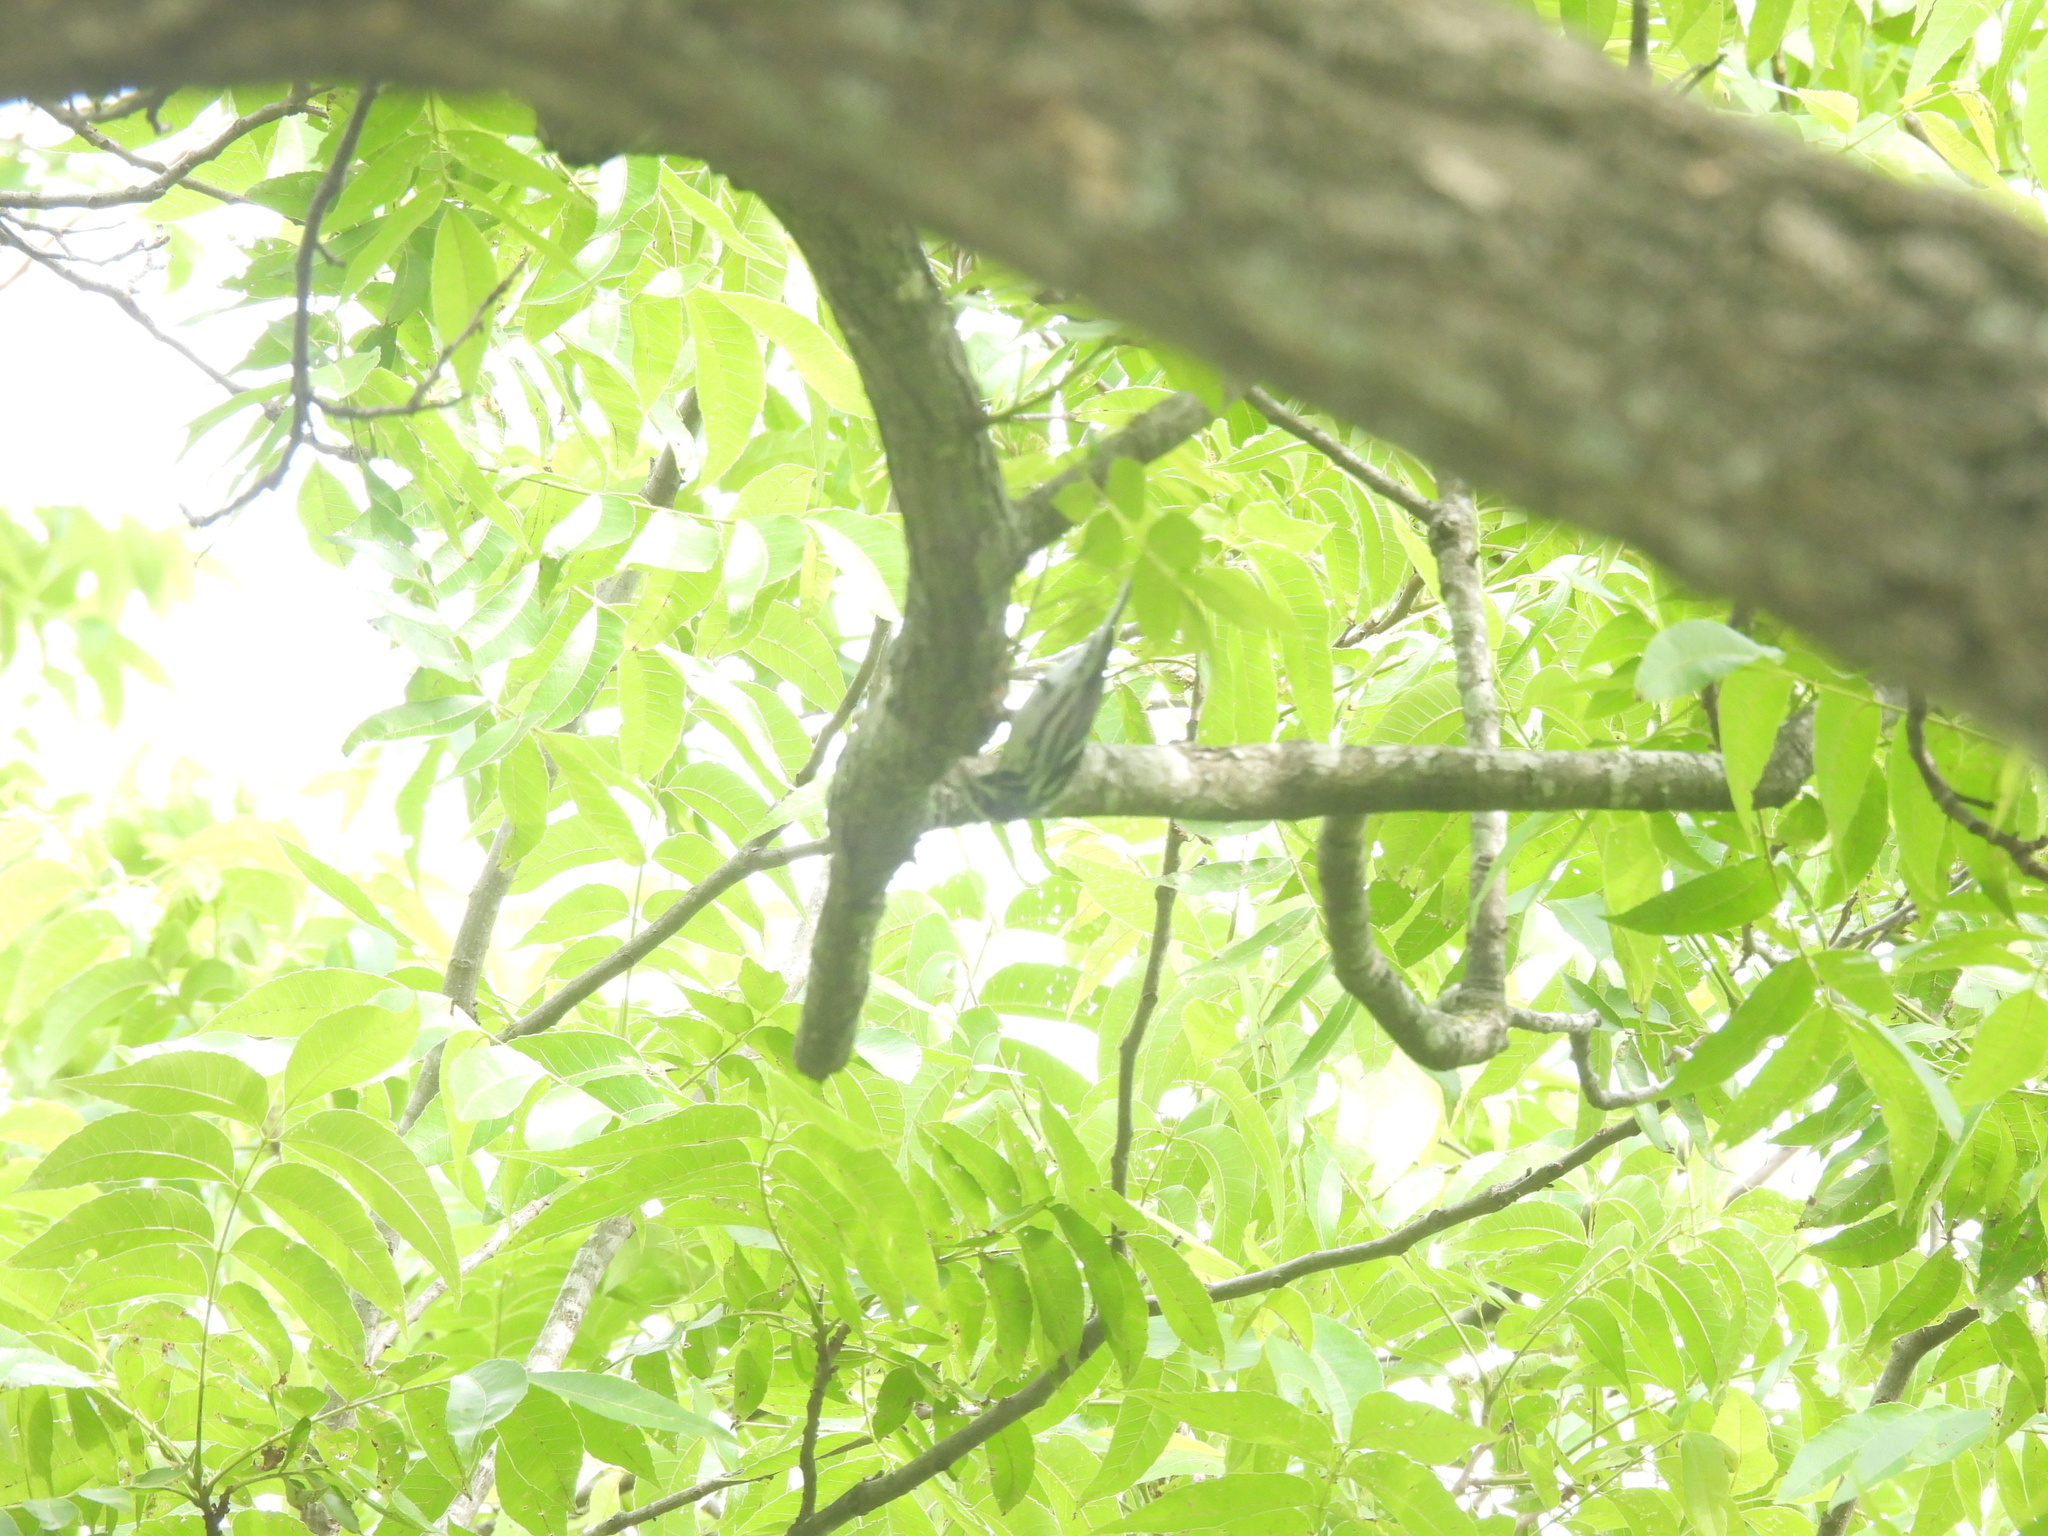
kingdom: Animalia
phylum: Chordata
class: Aves
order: Passeriformes
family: Parulidae
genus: Mniotilta
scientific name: Mniotilta varia
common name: Black-and-white warbler
